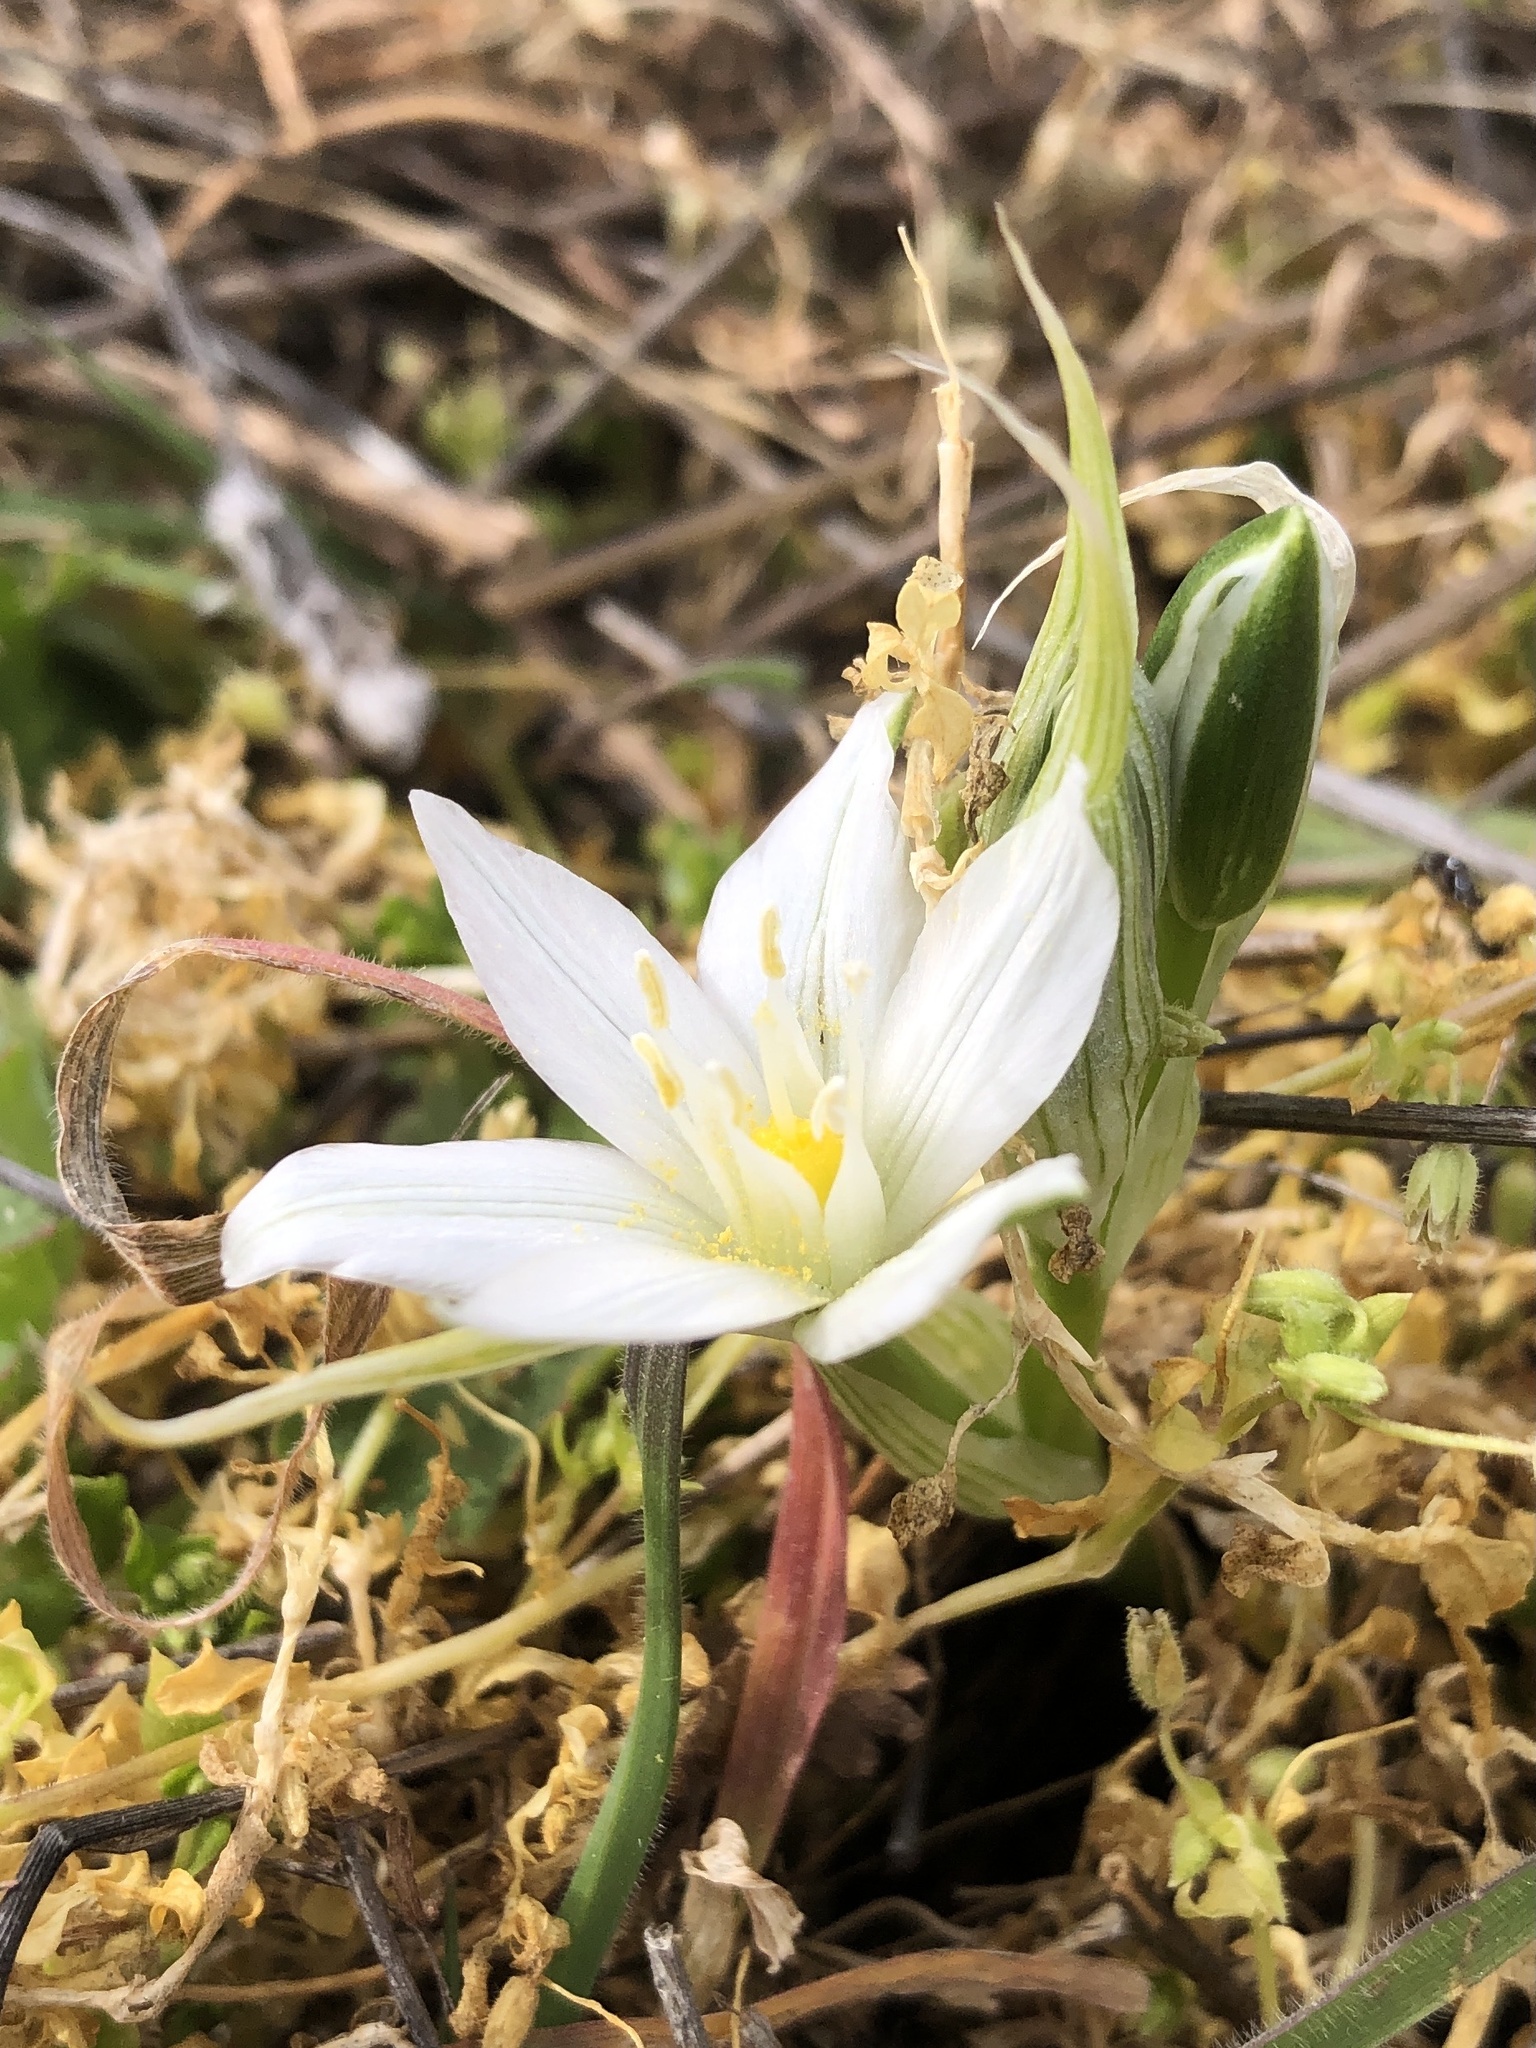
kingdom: Plantae
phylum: Tracheophyta
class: Liliopsida
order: Asparagales
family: Asparagaceae
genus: Ornithogalum
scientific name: Ornithogalum umbellatum
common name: Garden star-of-bethlehem
